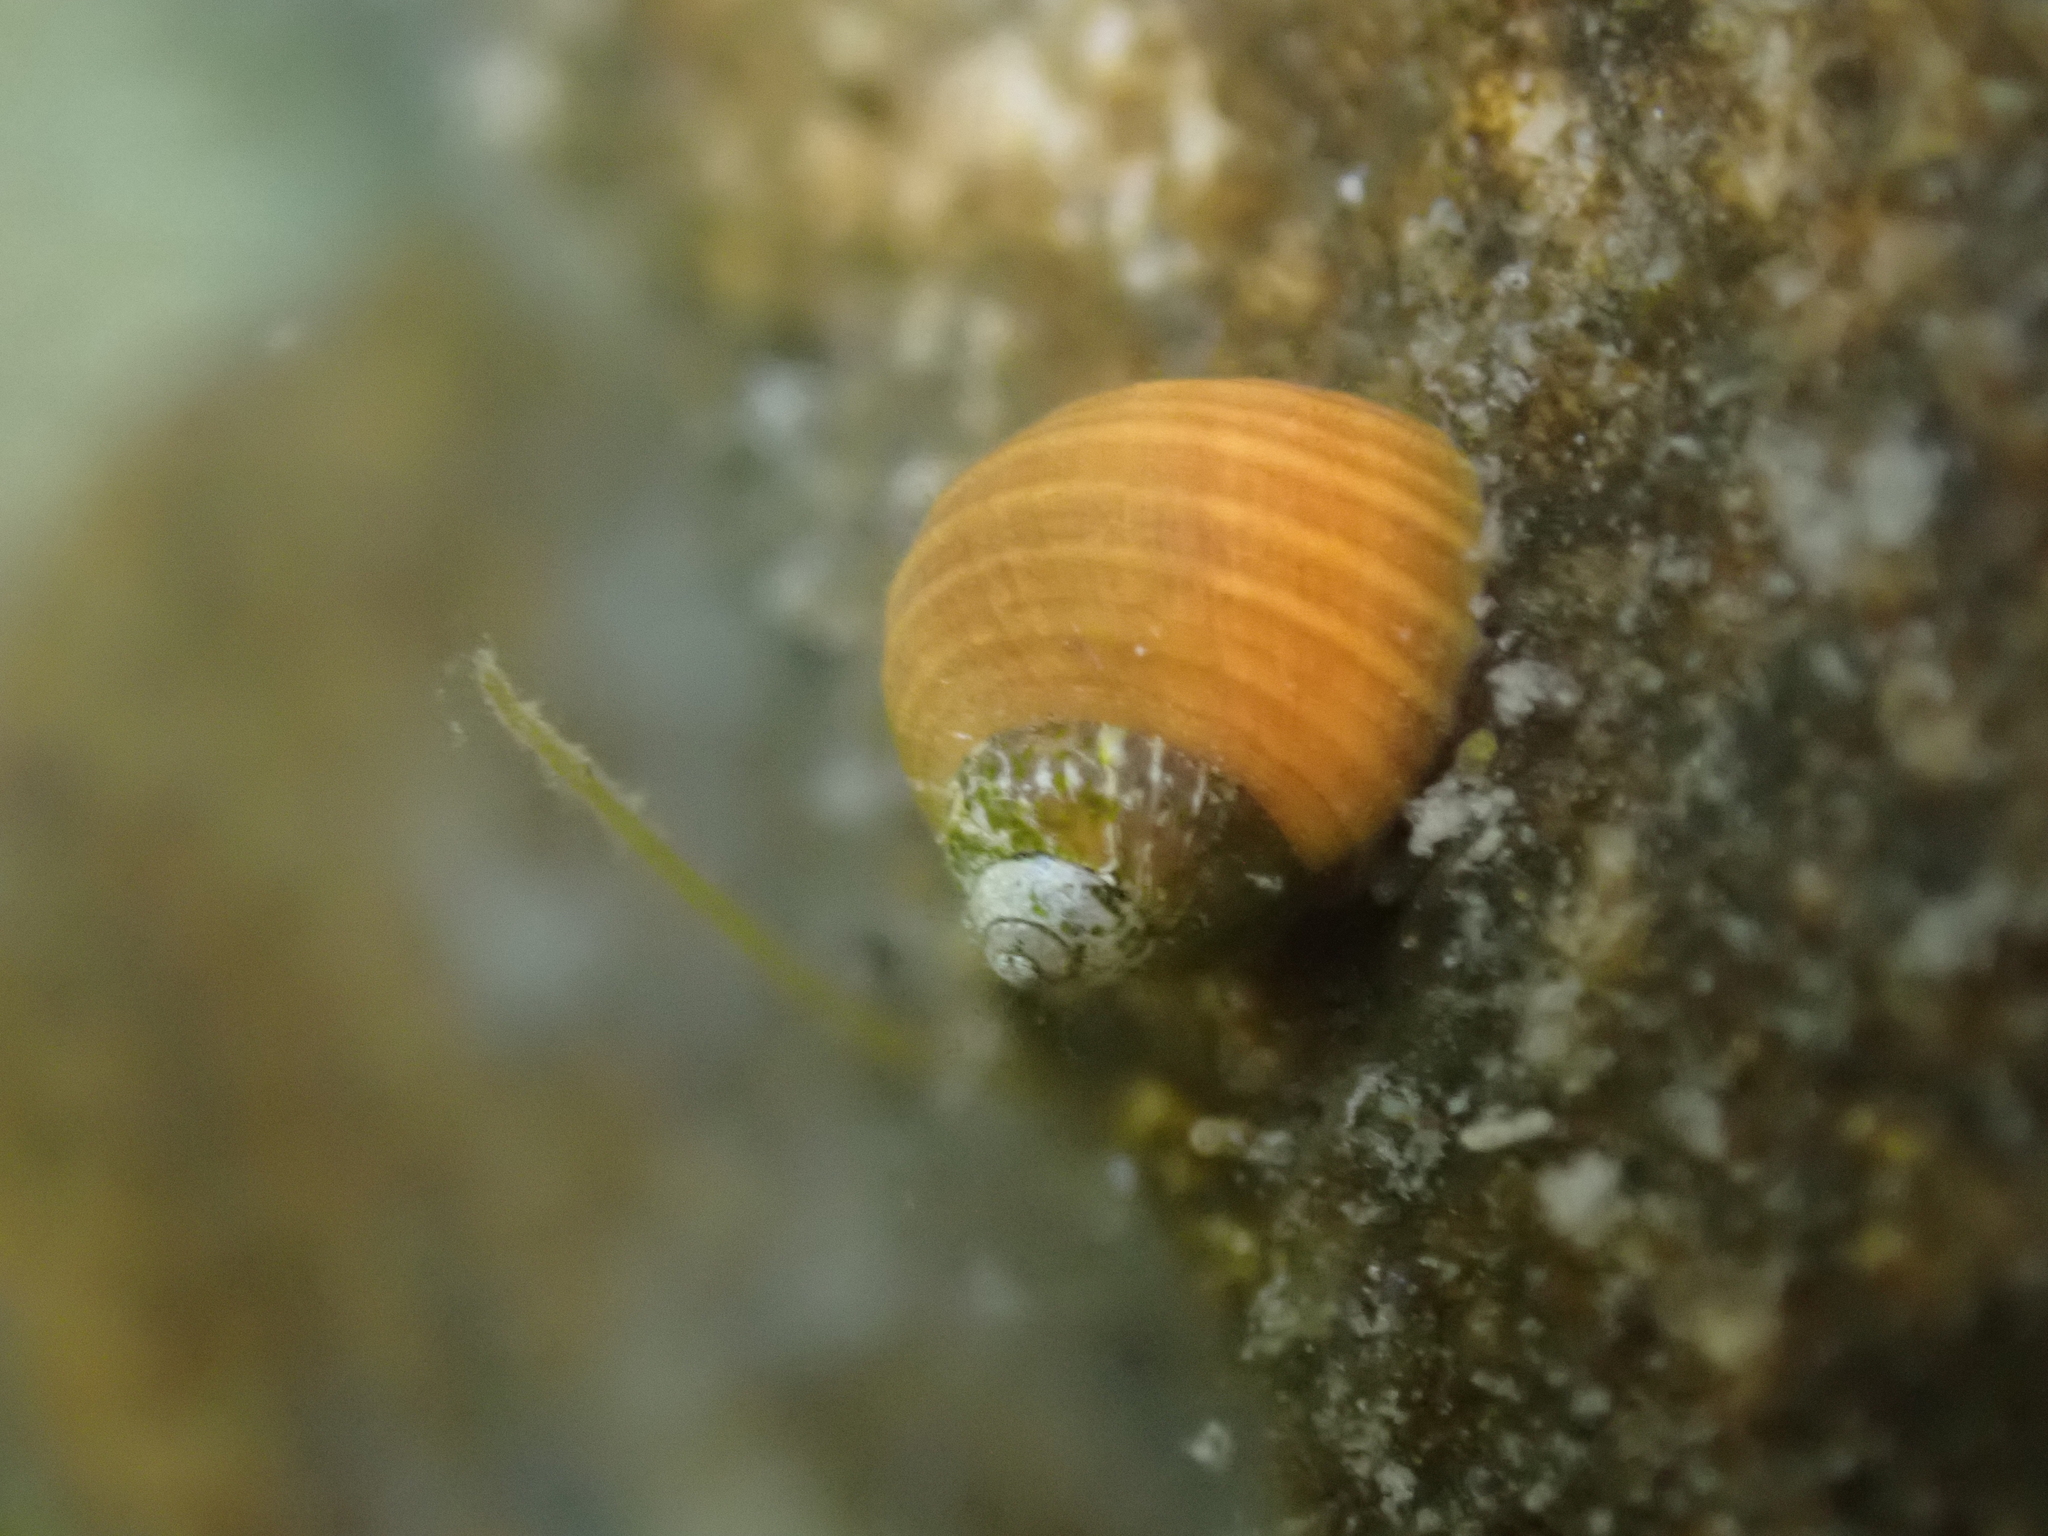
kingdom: Animalia
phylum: Mollusca
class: Gastropoda
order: Littorinimorpha
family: Littorinidae
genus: Littorina
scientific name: Littorina saxatilis
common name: Black-lined periwinkle
